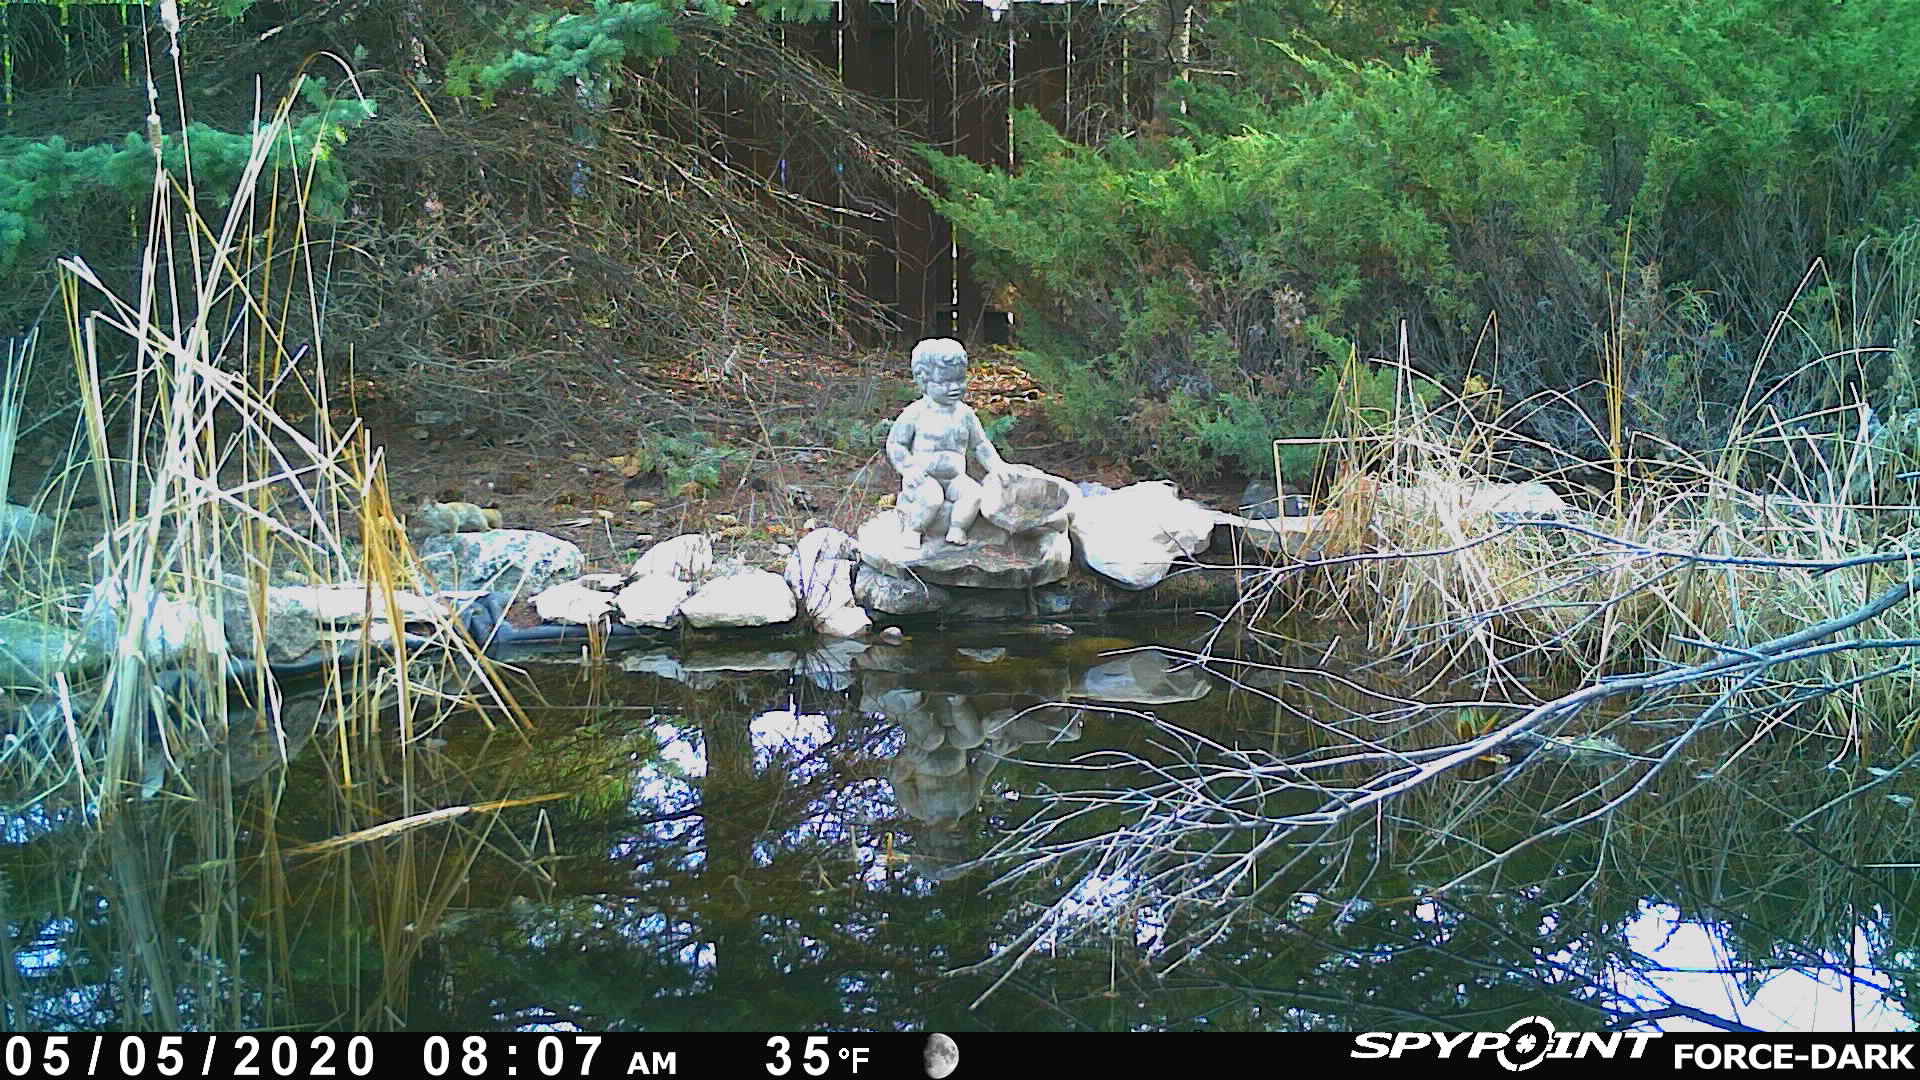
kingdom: Animalia
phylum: Chordata
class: Mammalia
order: Rodentia
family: Sciuridae
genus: Tamiasciurus
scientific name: Tamiasciurus hudsonicus
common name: Red squirrel
